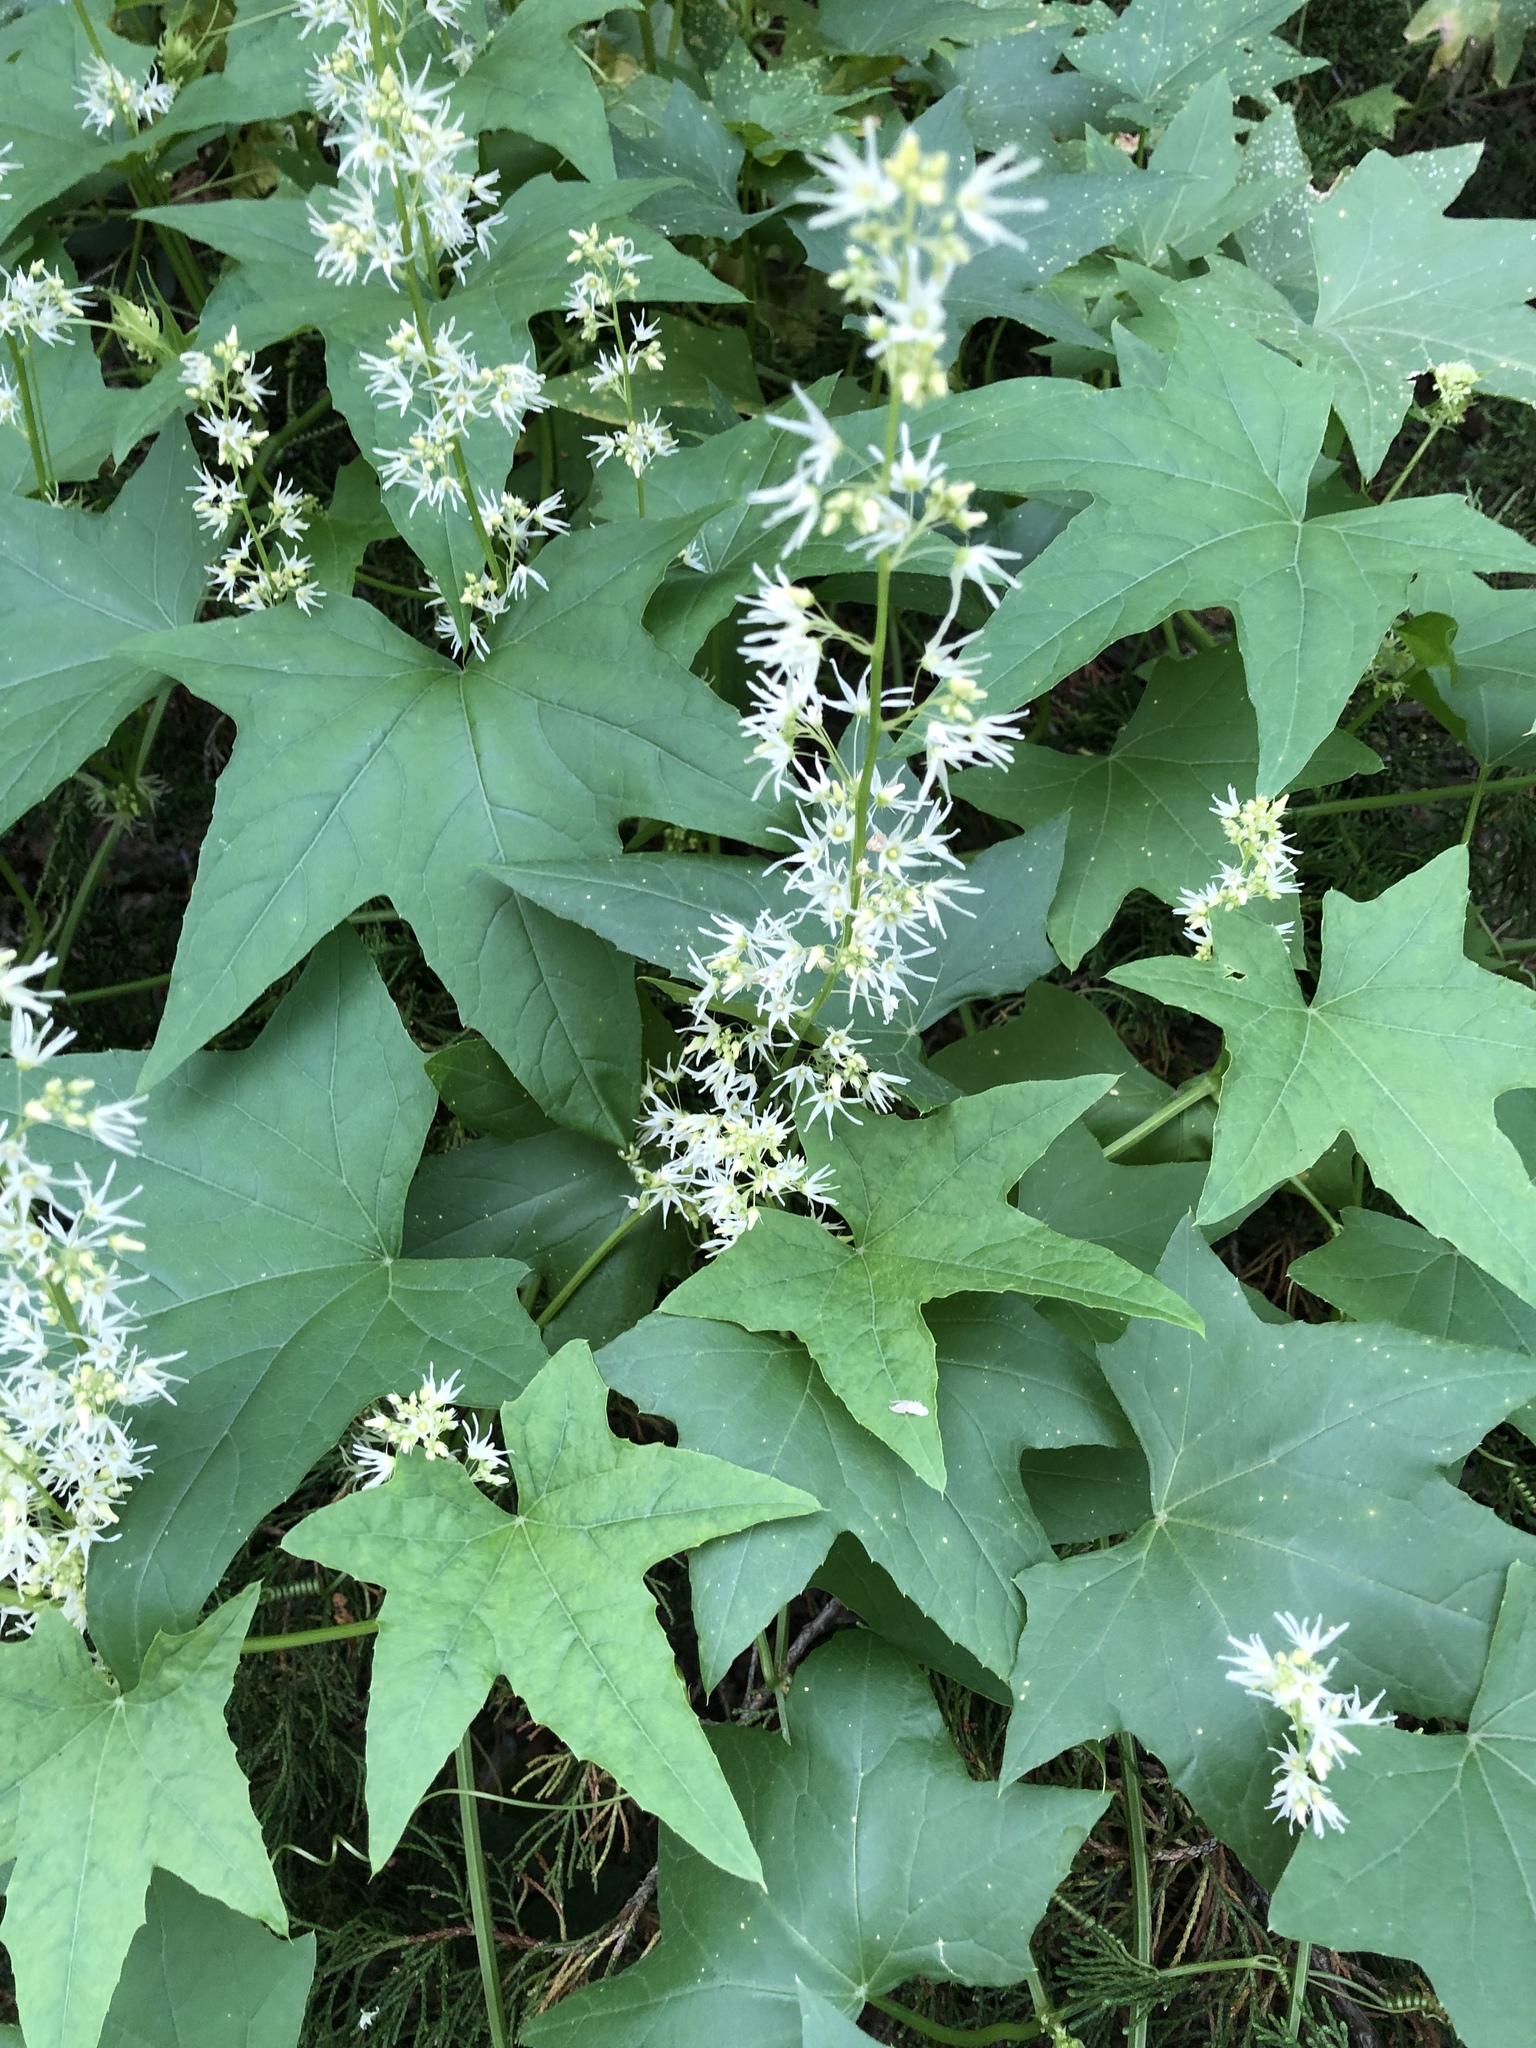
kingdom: Plantae
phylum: Tracheophyta
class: Magnoliopsida
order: Cucurbitales
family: Cucurbitaceae
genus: Echinocystis
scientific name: Echinocystis lobata
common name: Wild cucumber
